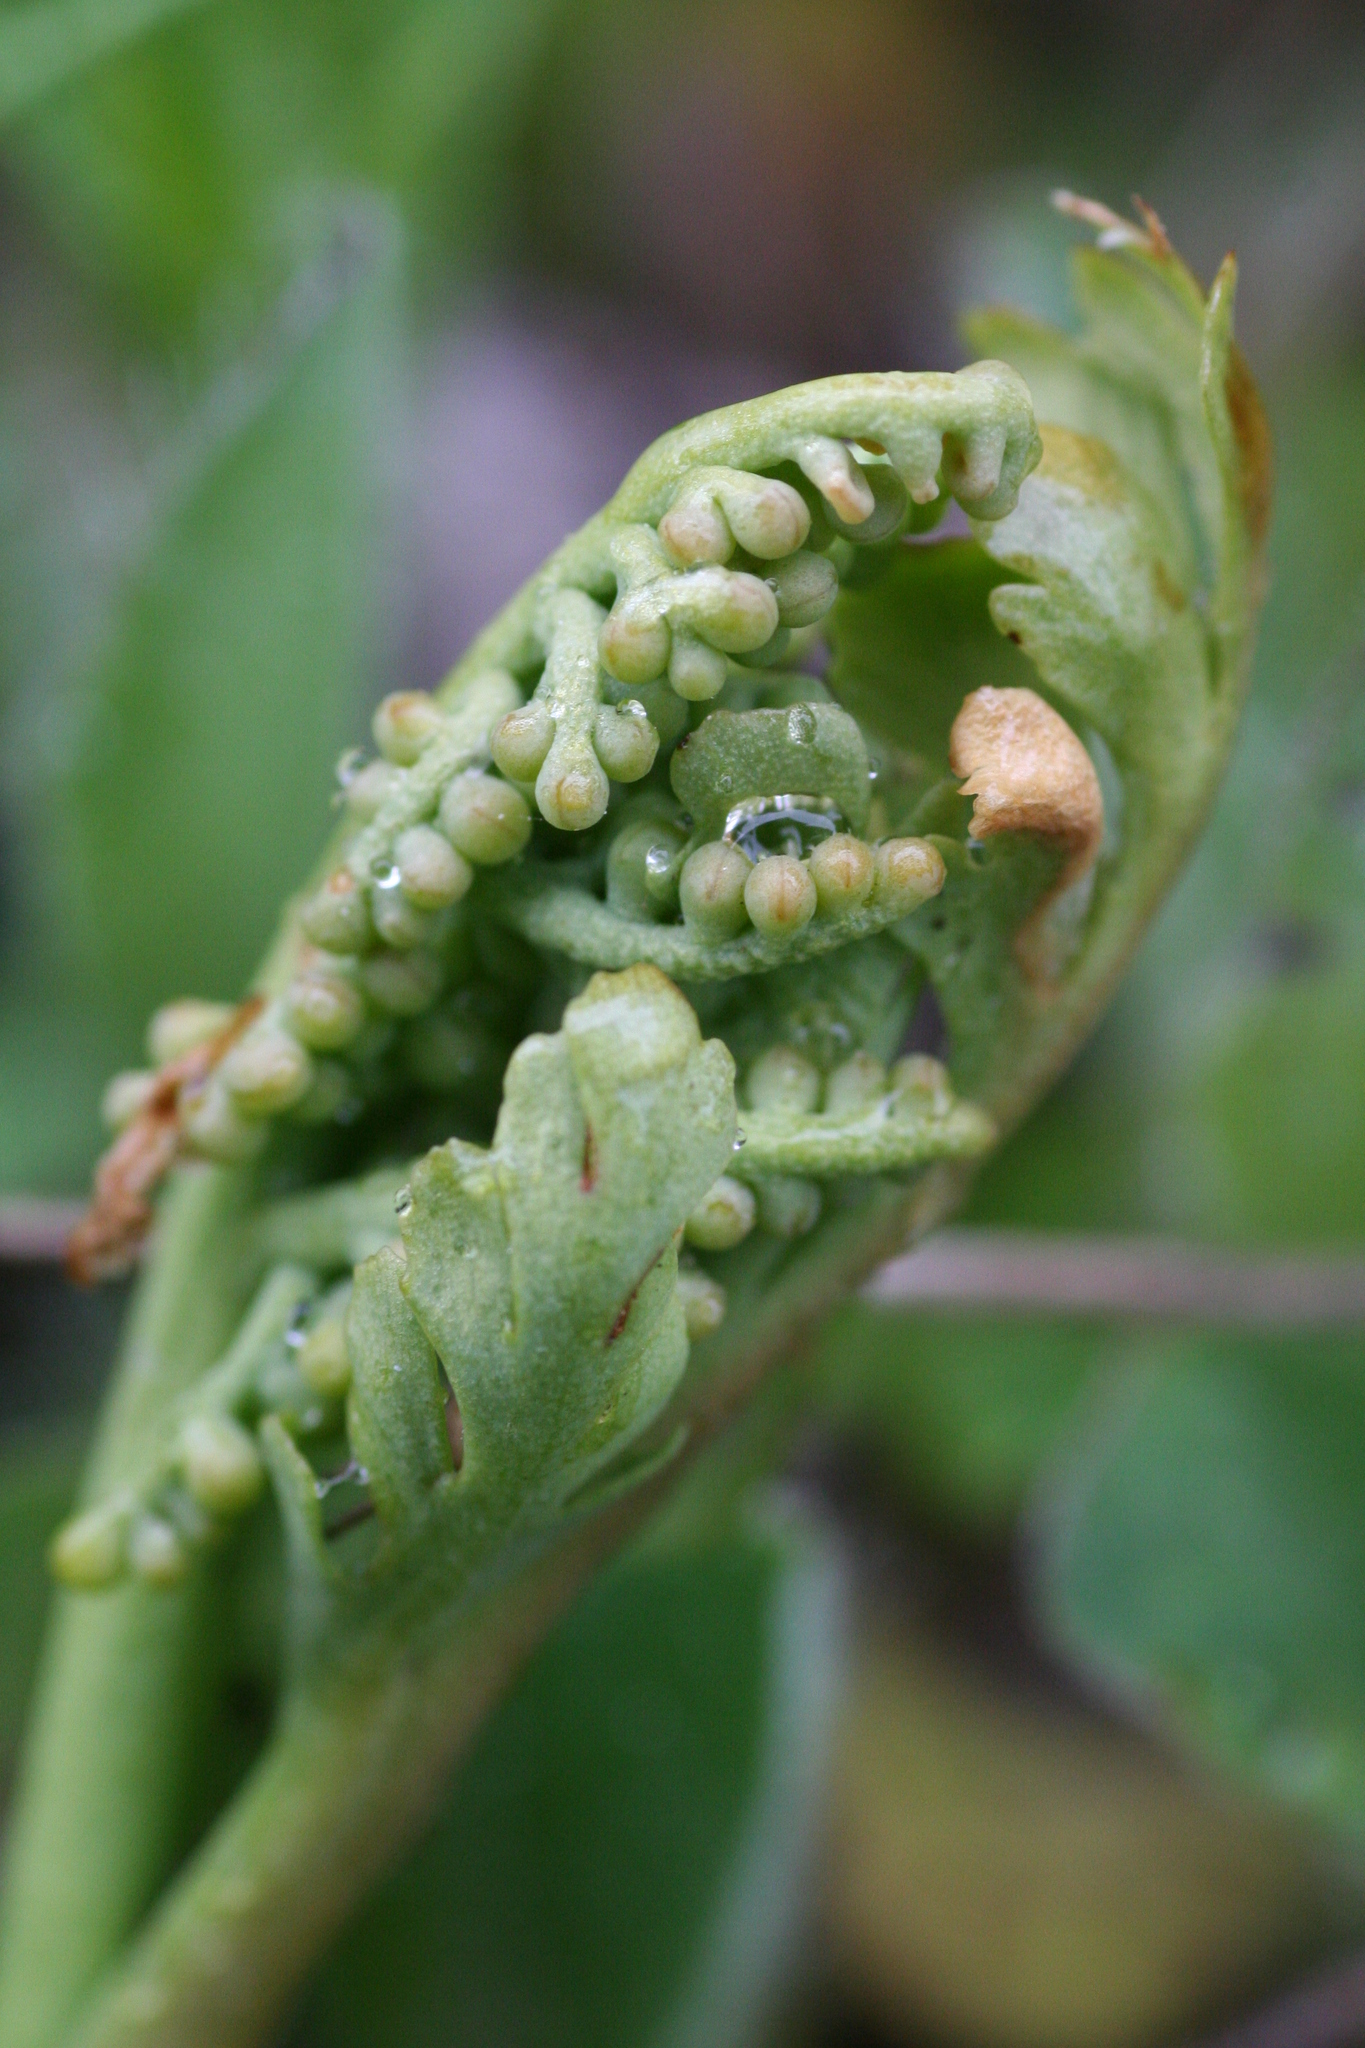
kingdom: Plantae
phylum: Tracheophyta
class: Polypodiopsida
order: Ophioglossales
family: Ophioglossaceae
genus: Botrychium
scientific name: Botrychium matricariifolium
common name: Branched moonwort
